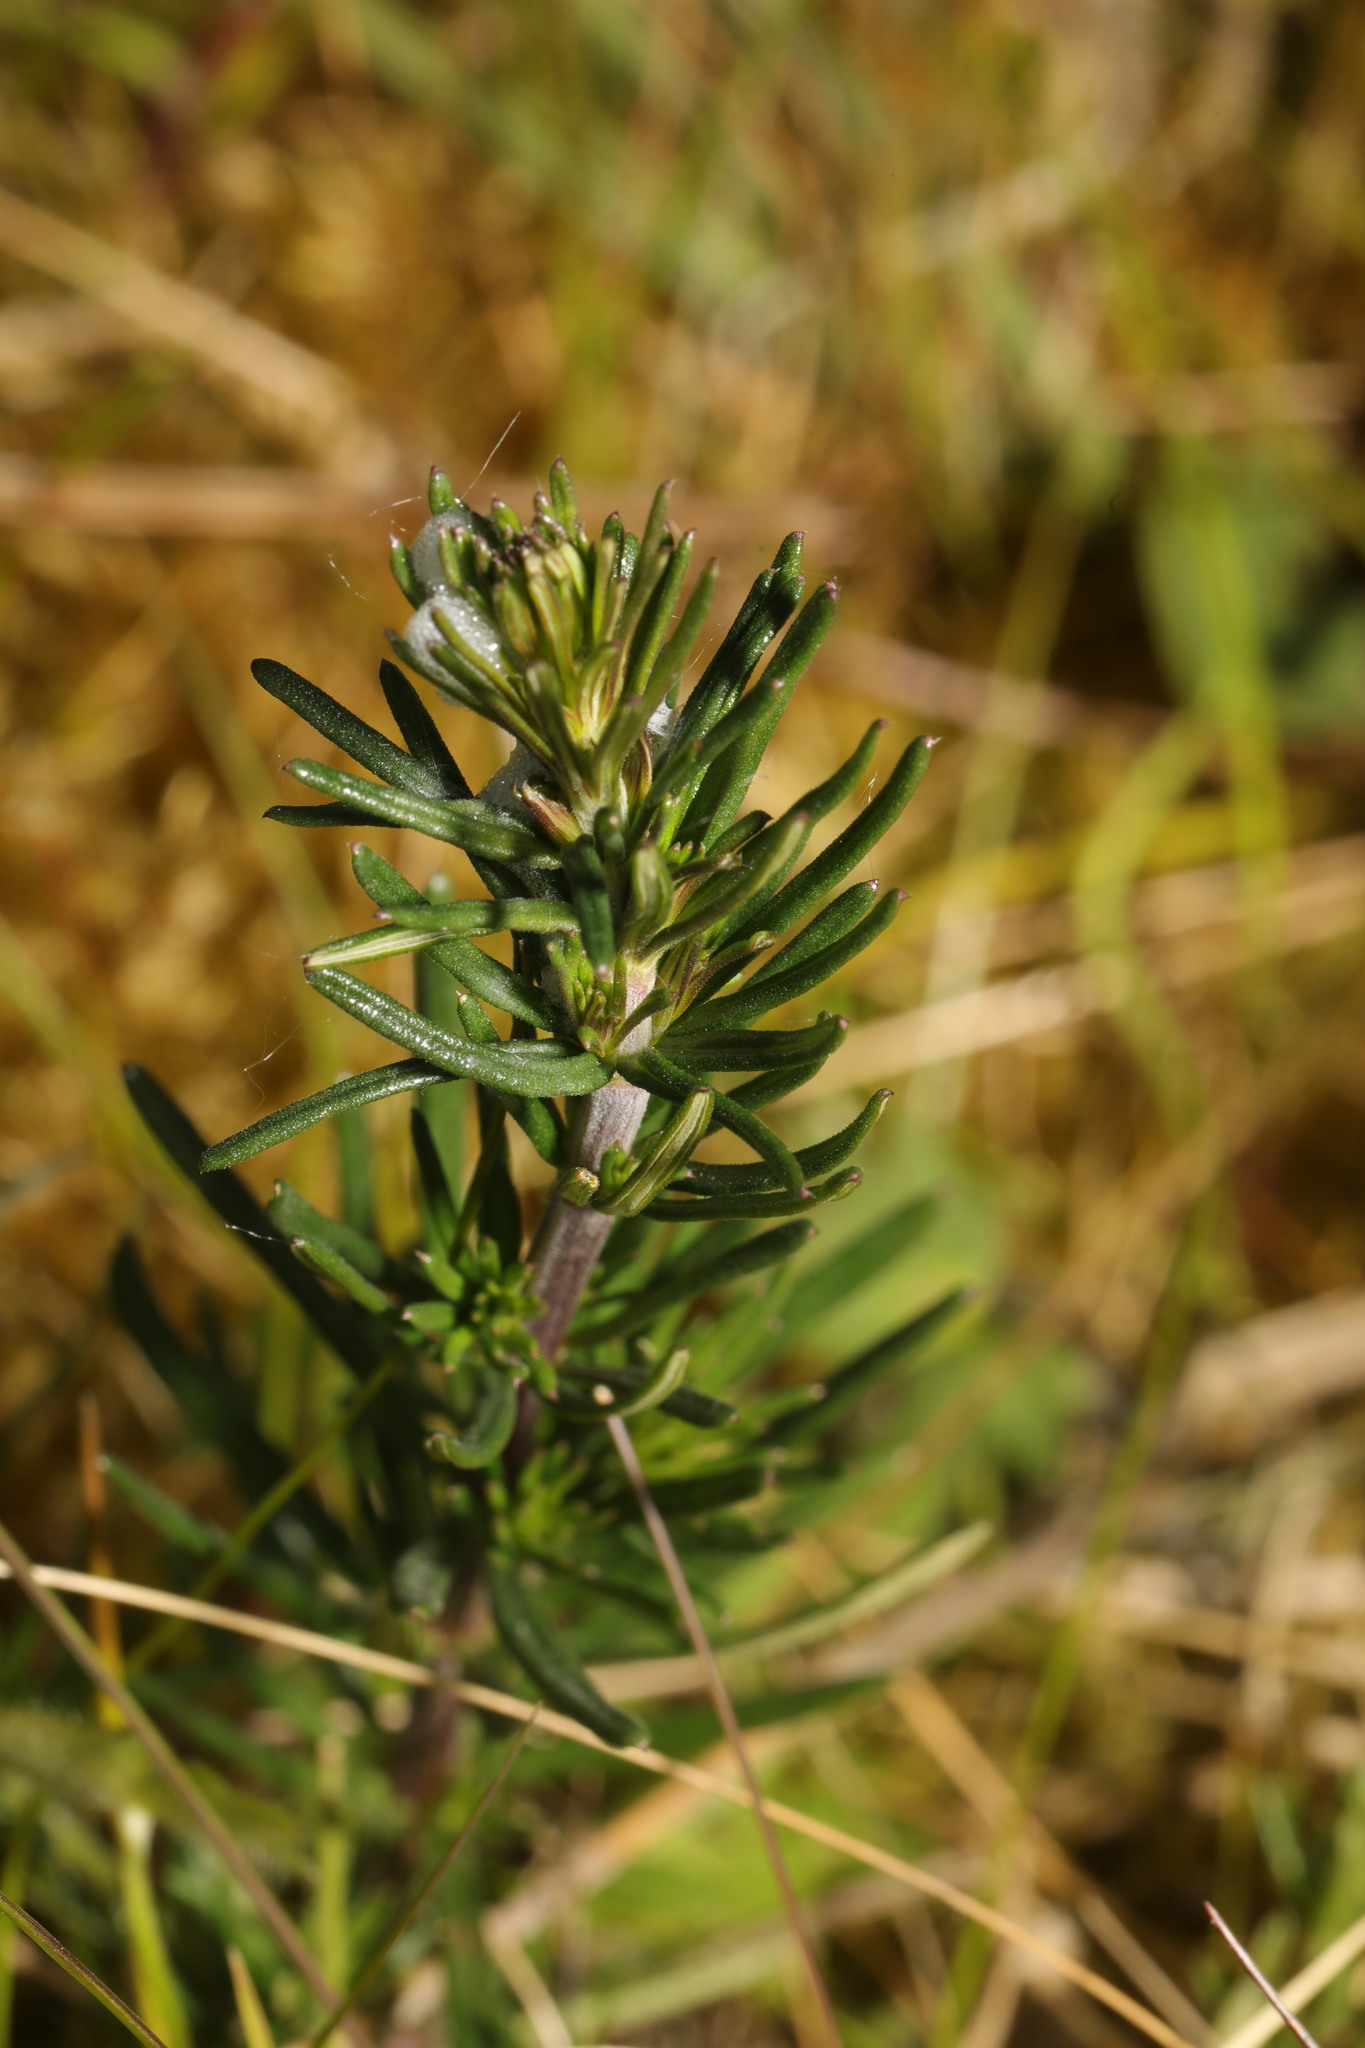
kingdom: Plantae
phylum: Tracheophyta
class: Magnoliopsida
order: Gentianales
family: Rubiaceae
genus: Galium
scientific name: Galium verum
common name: Lady's bedstraw
